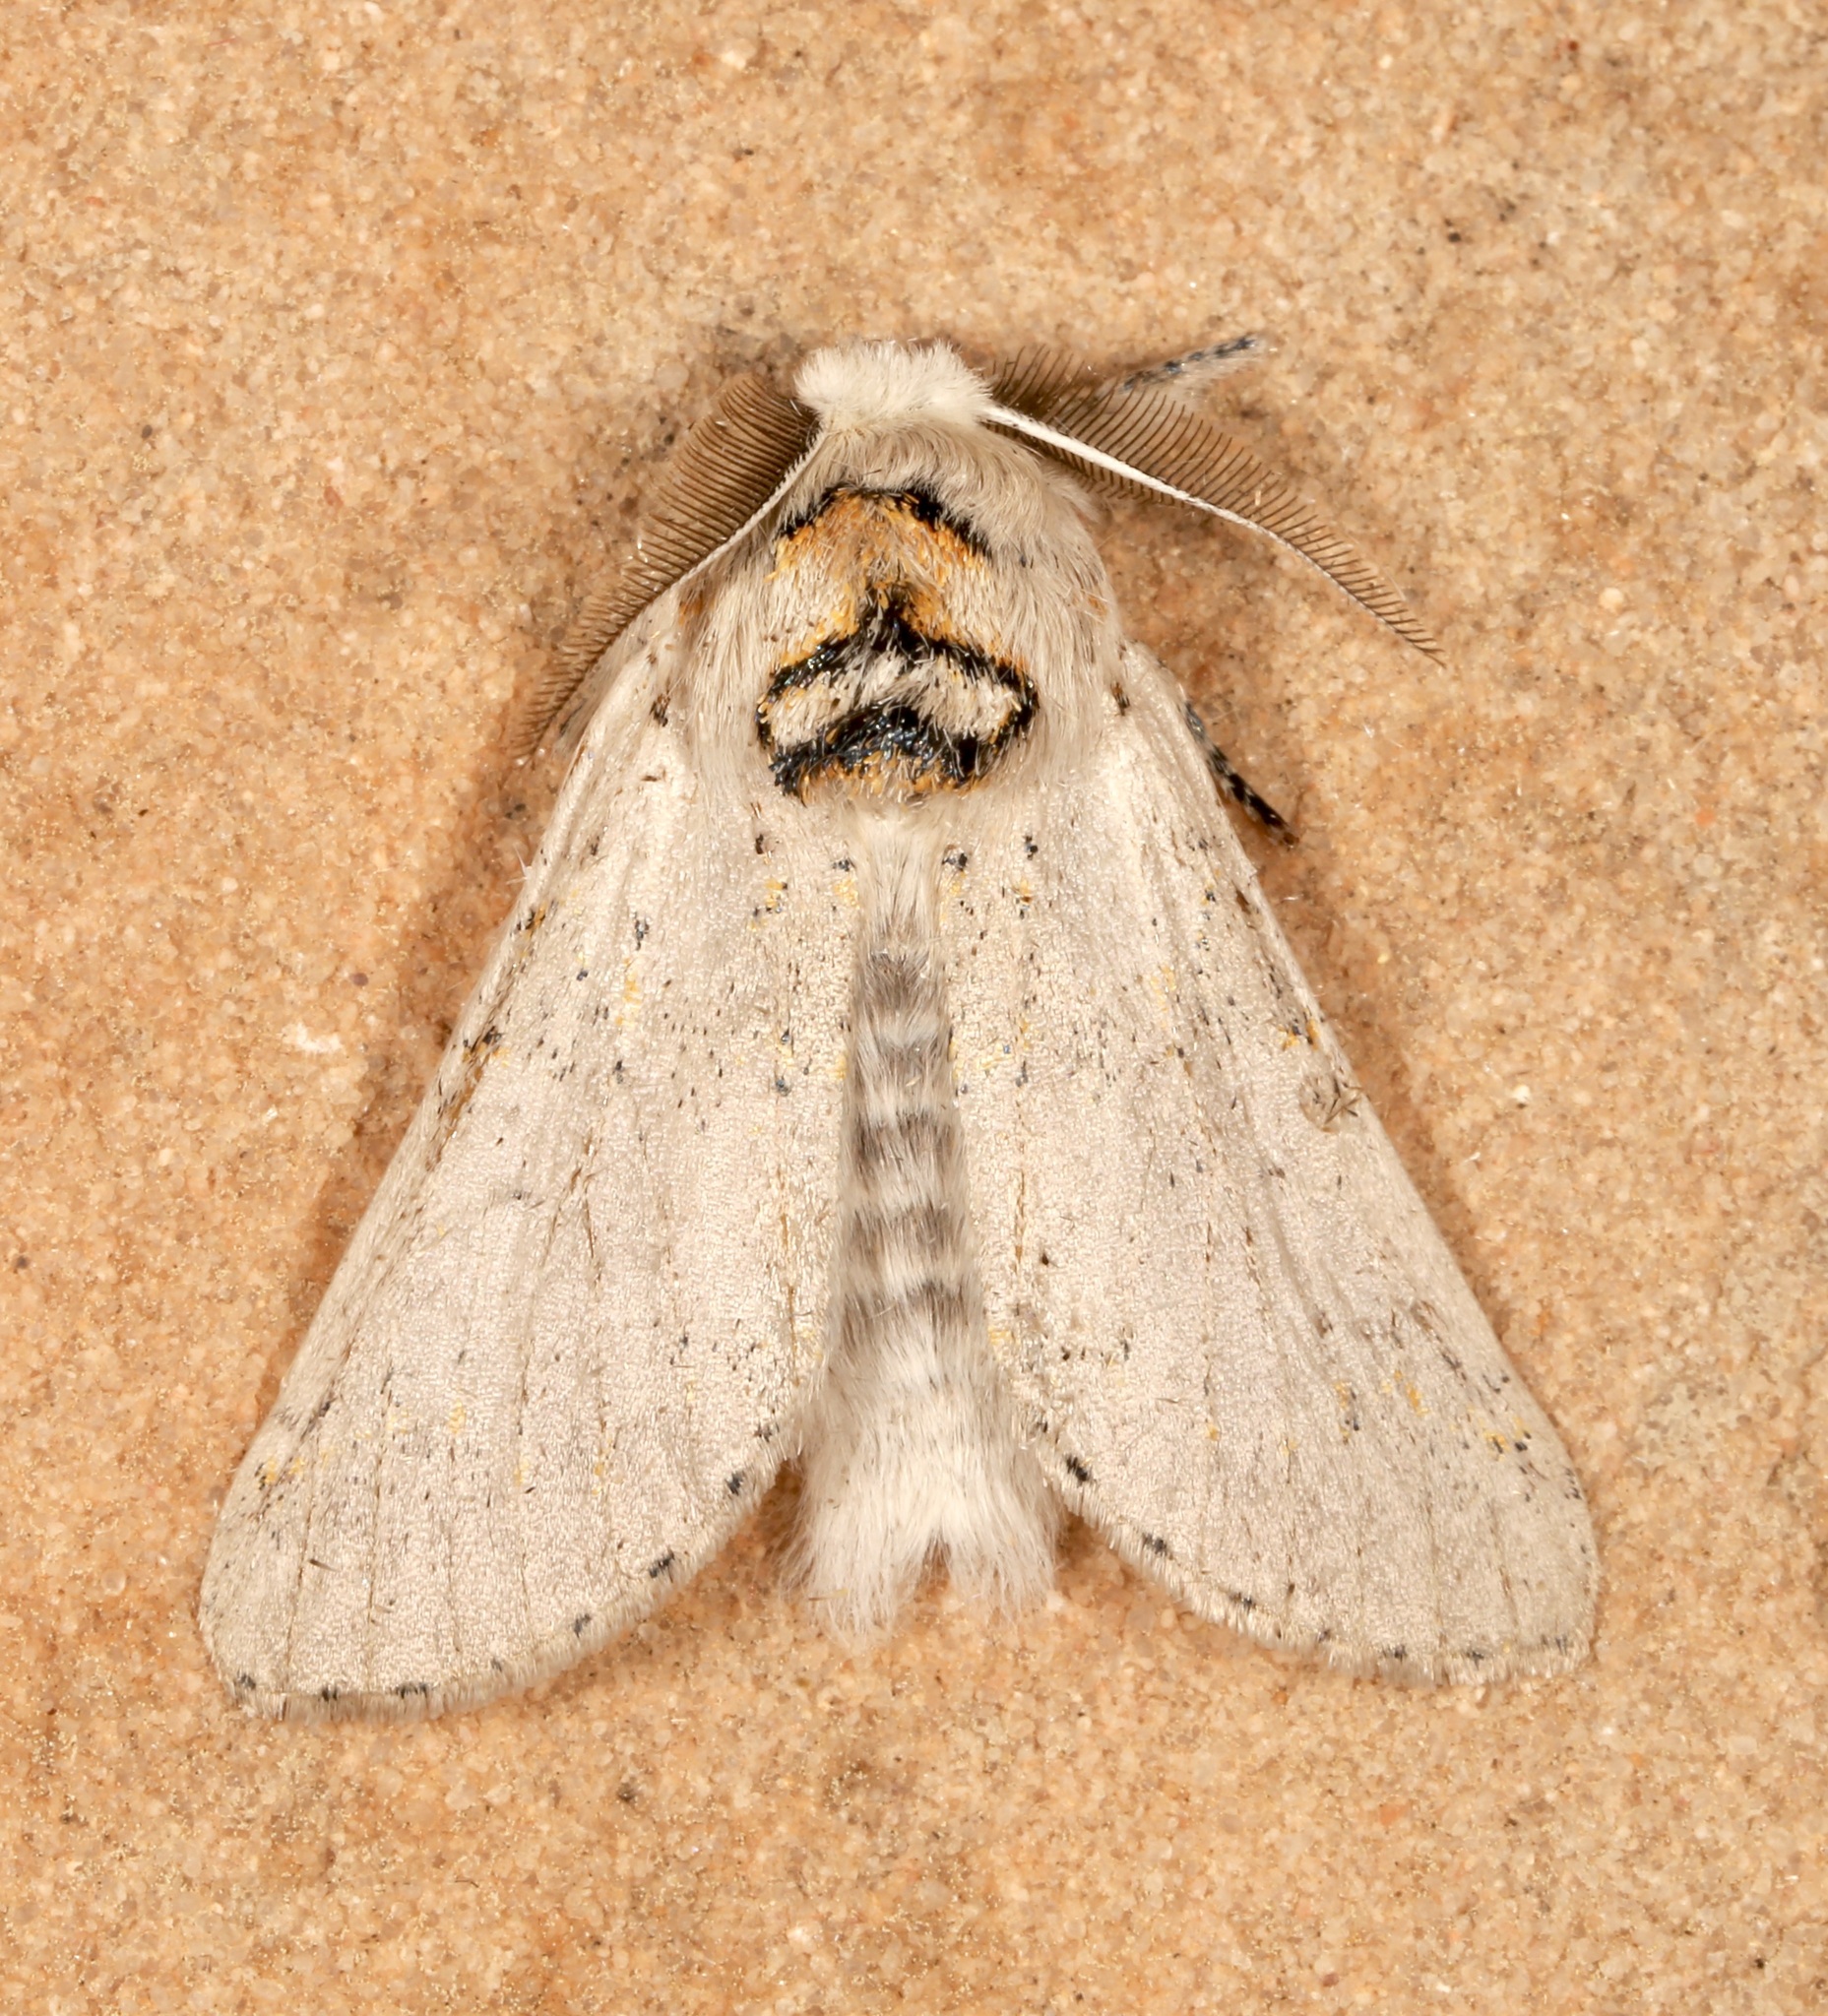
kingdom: Animalia
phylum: Arthropoda
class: Insecta
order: Lepidoptera
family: Notodontidae
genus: Furcula
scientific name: Furcula cinerea
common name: Gray furcula
